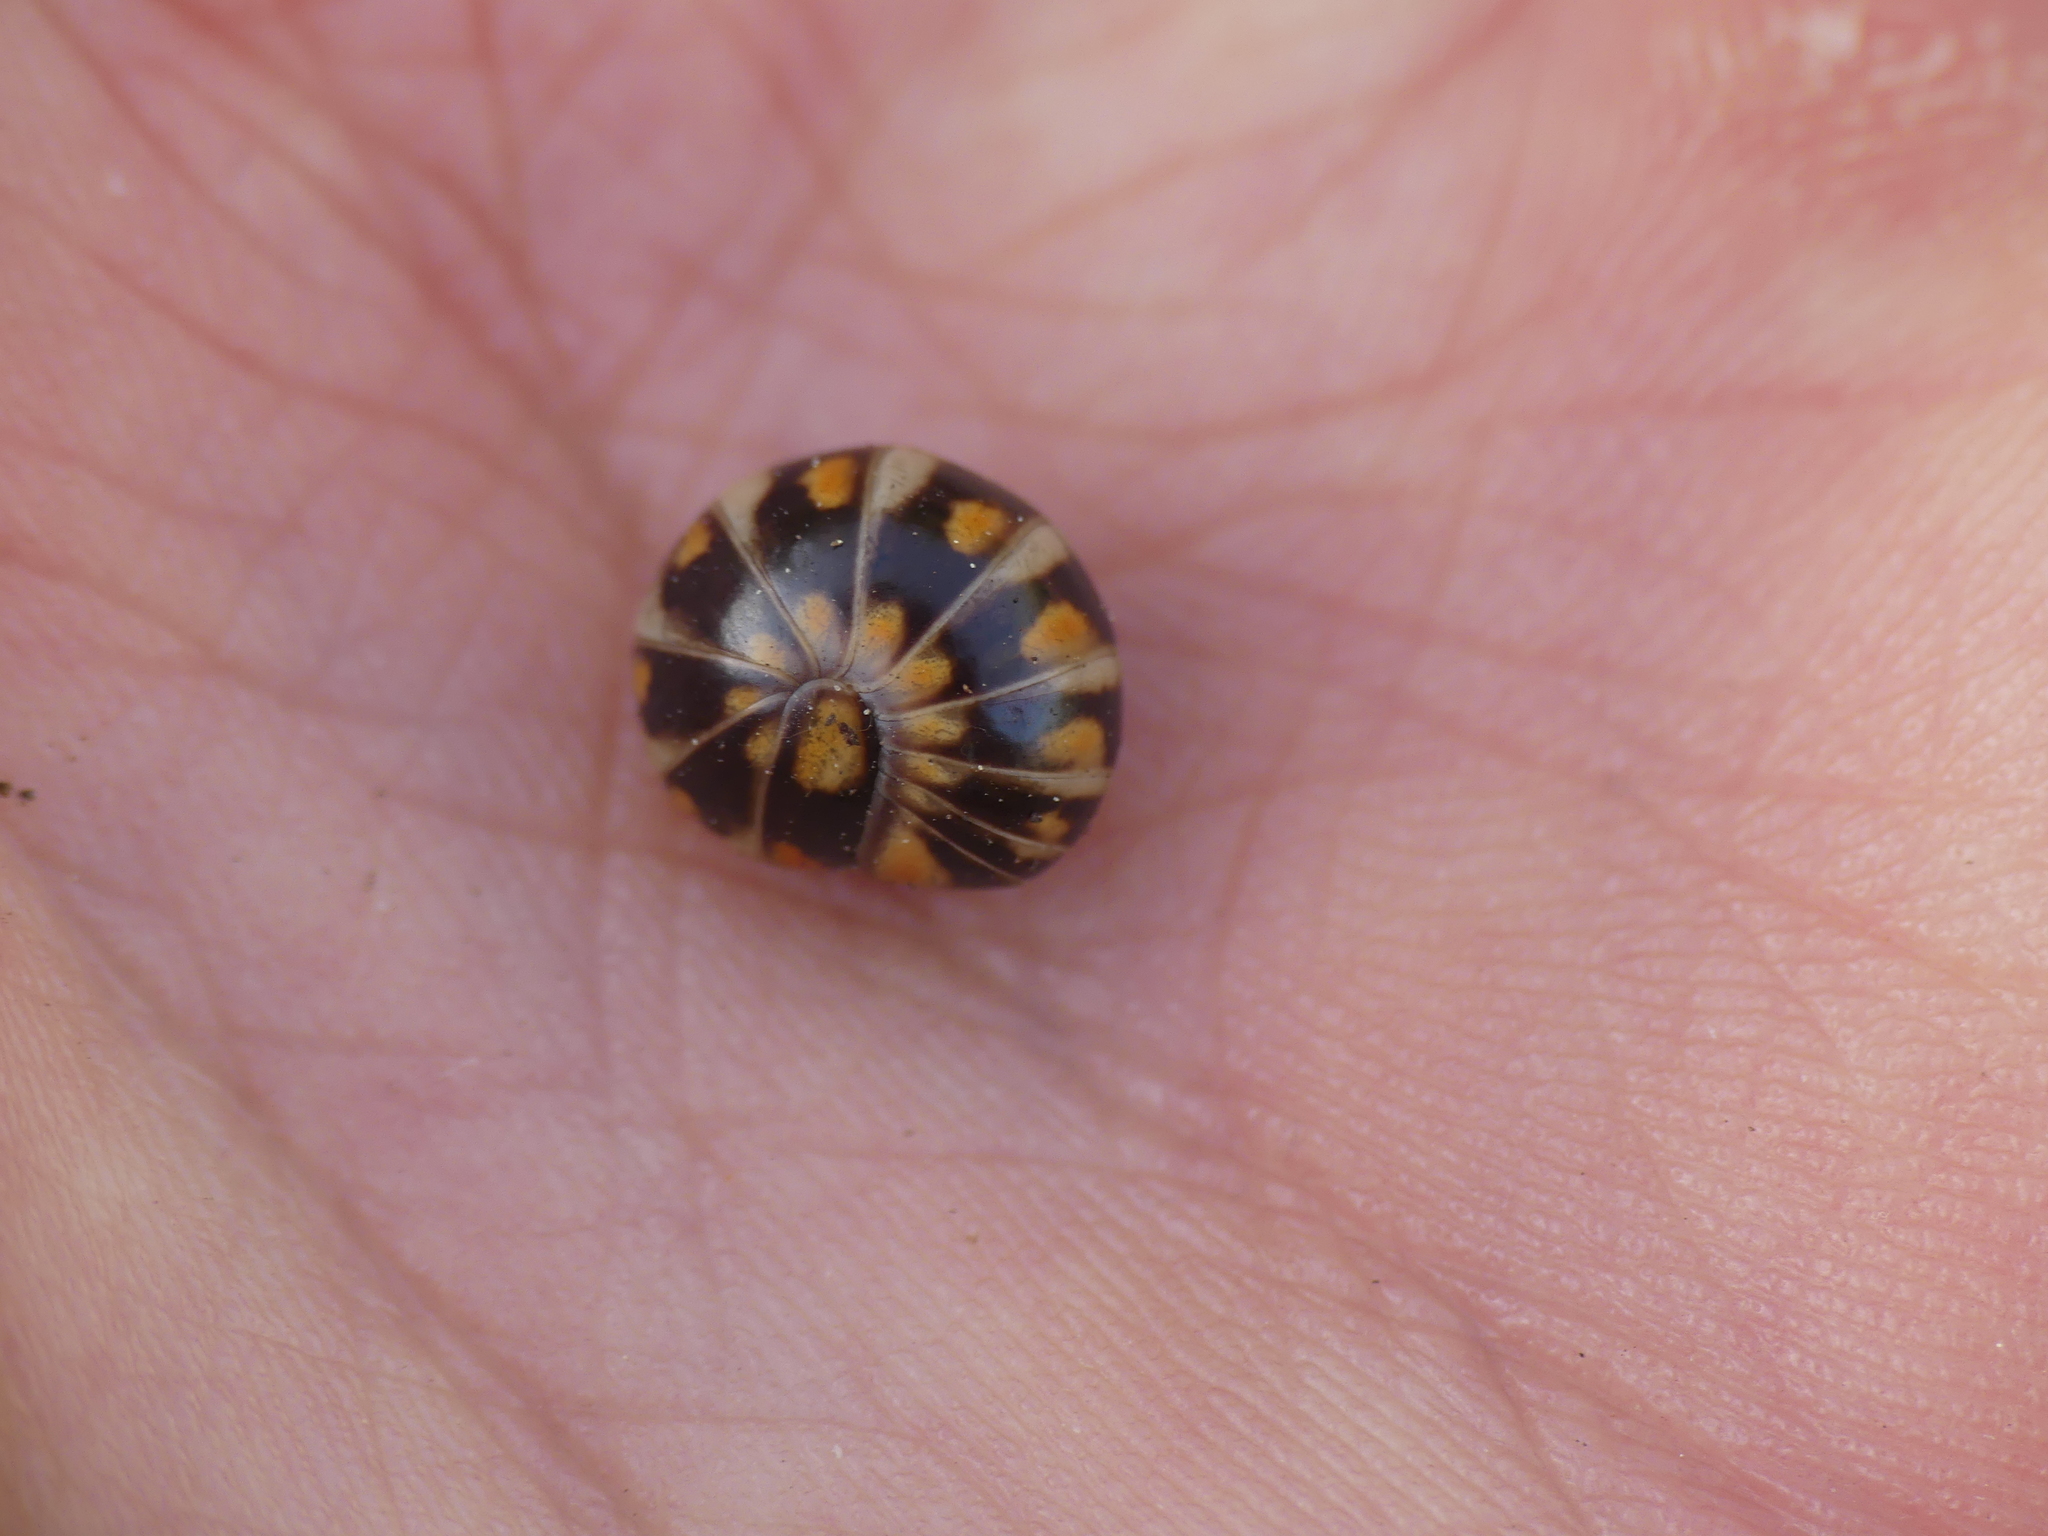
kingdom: Animalia
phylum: Arthropoda
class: Diplopoda
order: Glomerida
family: Glomeridae
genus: Glomeris
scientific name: Glomeris valesiaca
